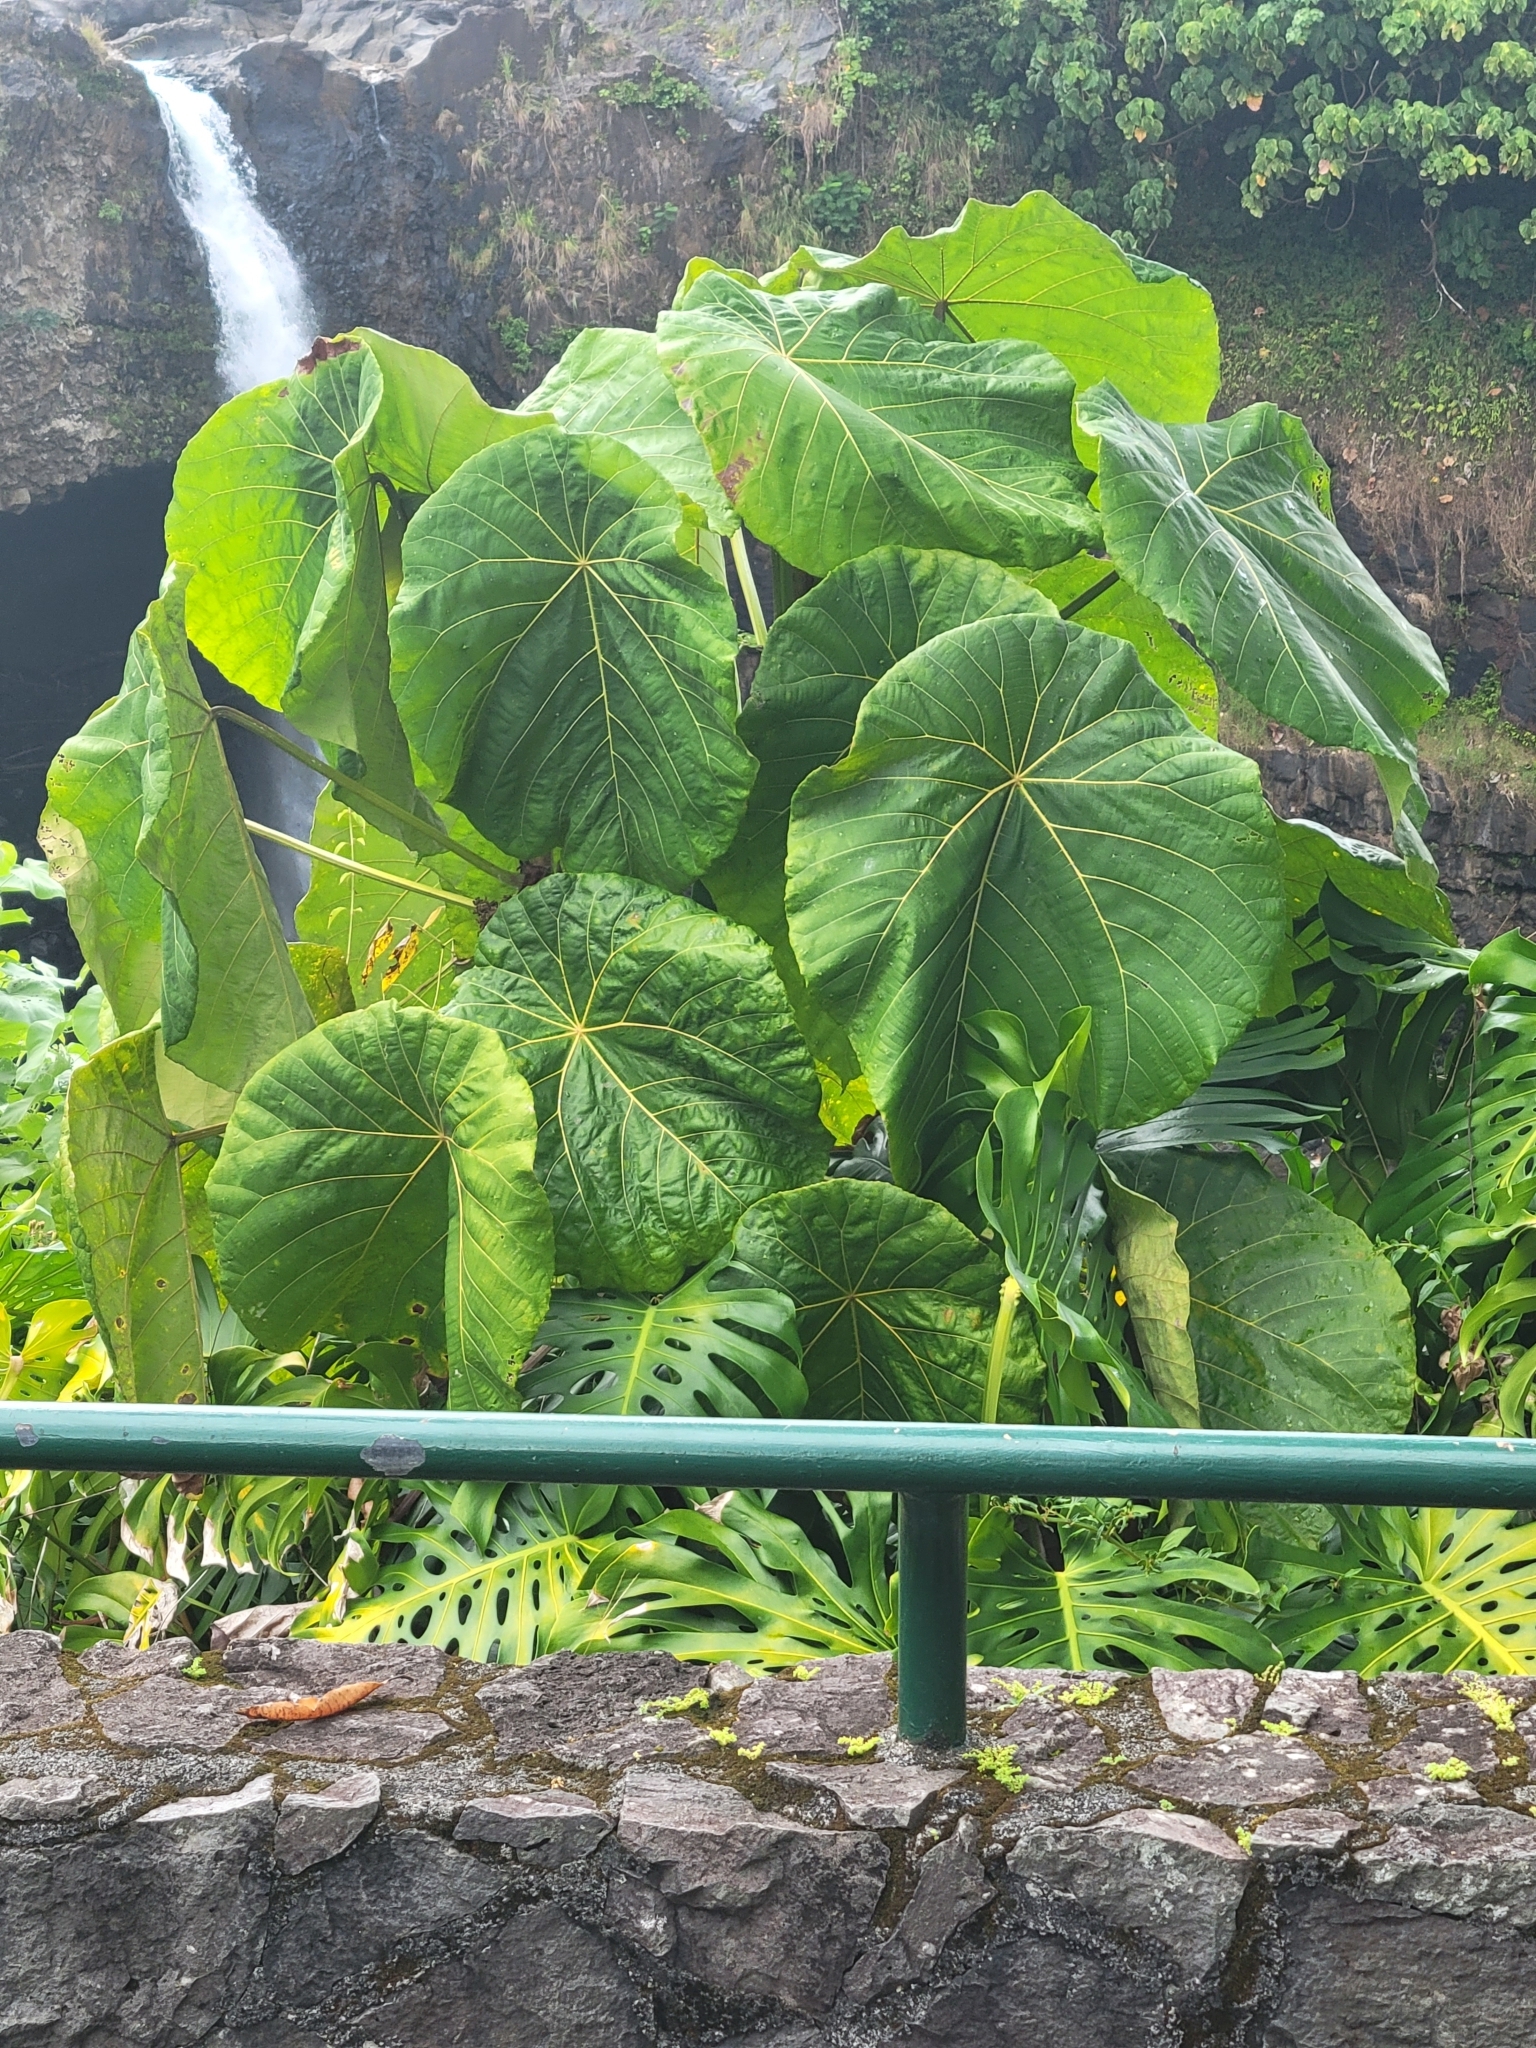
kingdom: Plantae
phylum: Tracheophyta
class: Magnoliopsida
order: Malpighiales
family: Euphorbiaceae
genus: Macaranga
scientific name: Macaranga mappa
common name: Pengua
